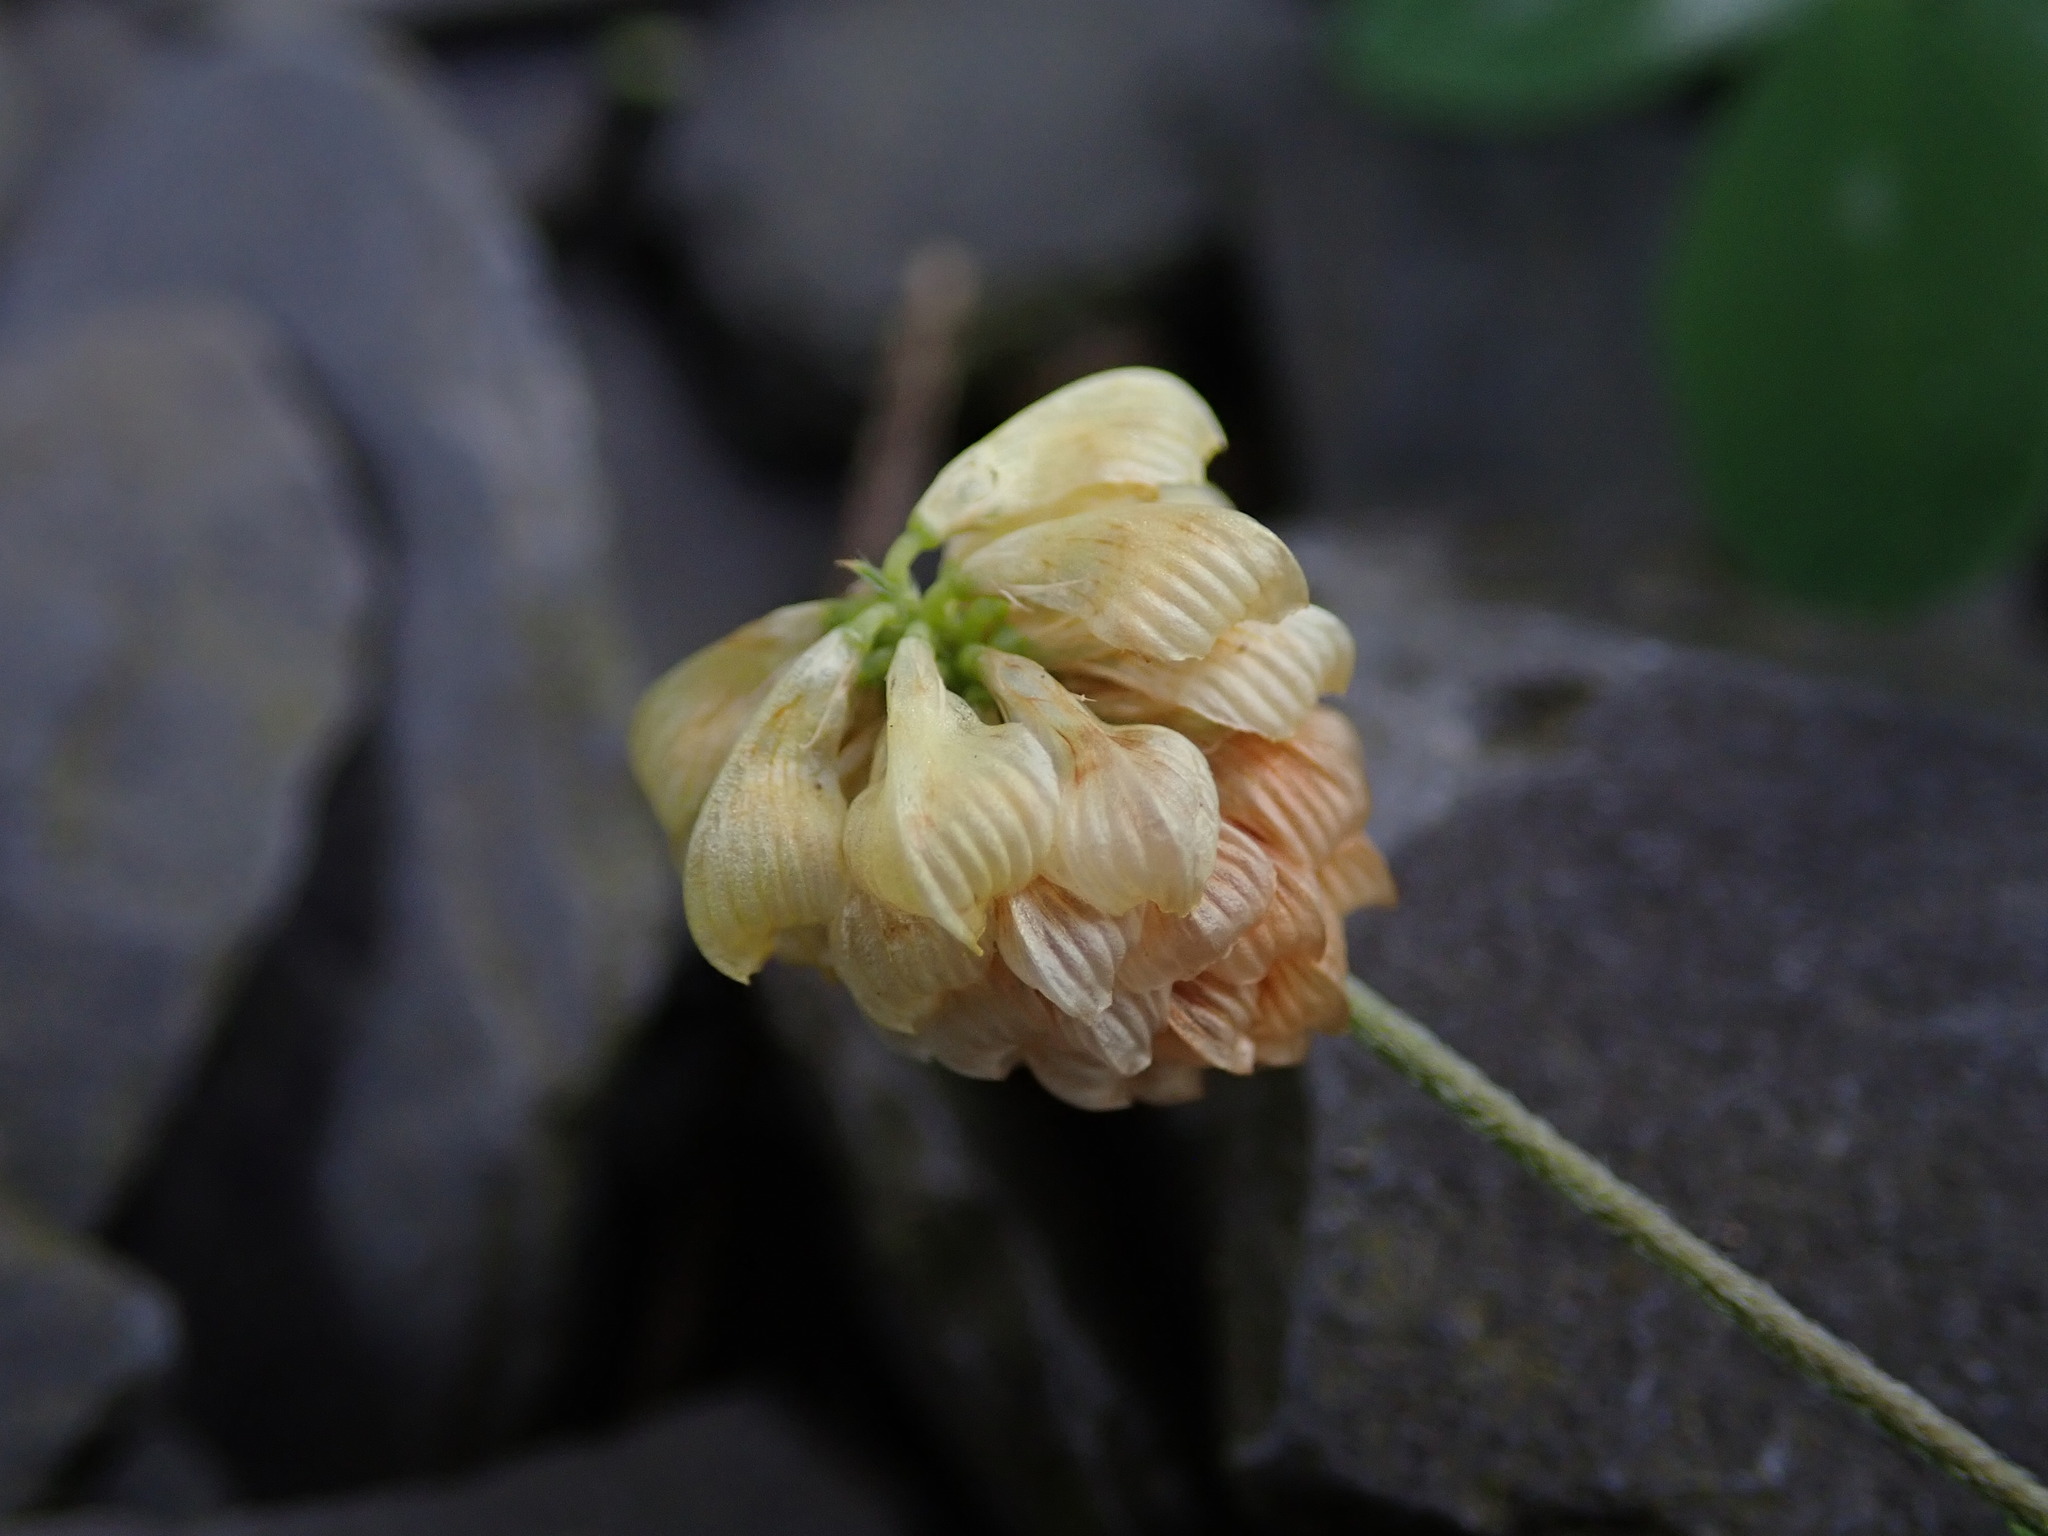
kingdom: Plantae
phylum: Tracheophyta
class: Magnoliopsida
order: Fabales
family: Fabaceae
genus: Trifolium
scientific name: Trifolium campestre
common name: Field clover
